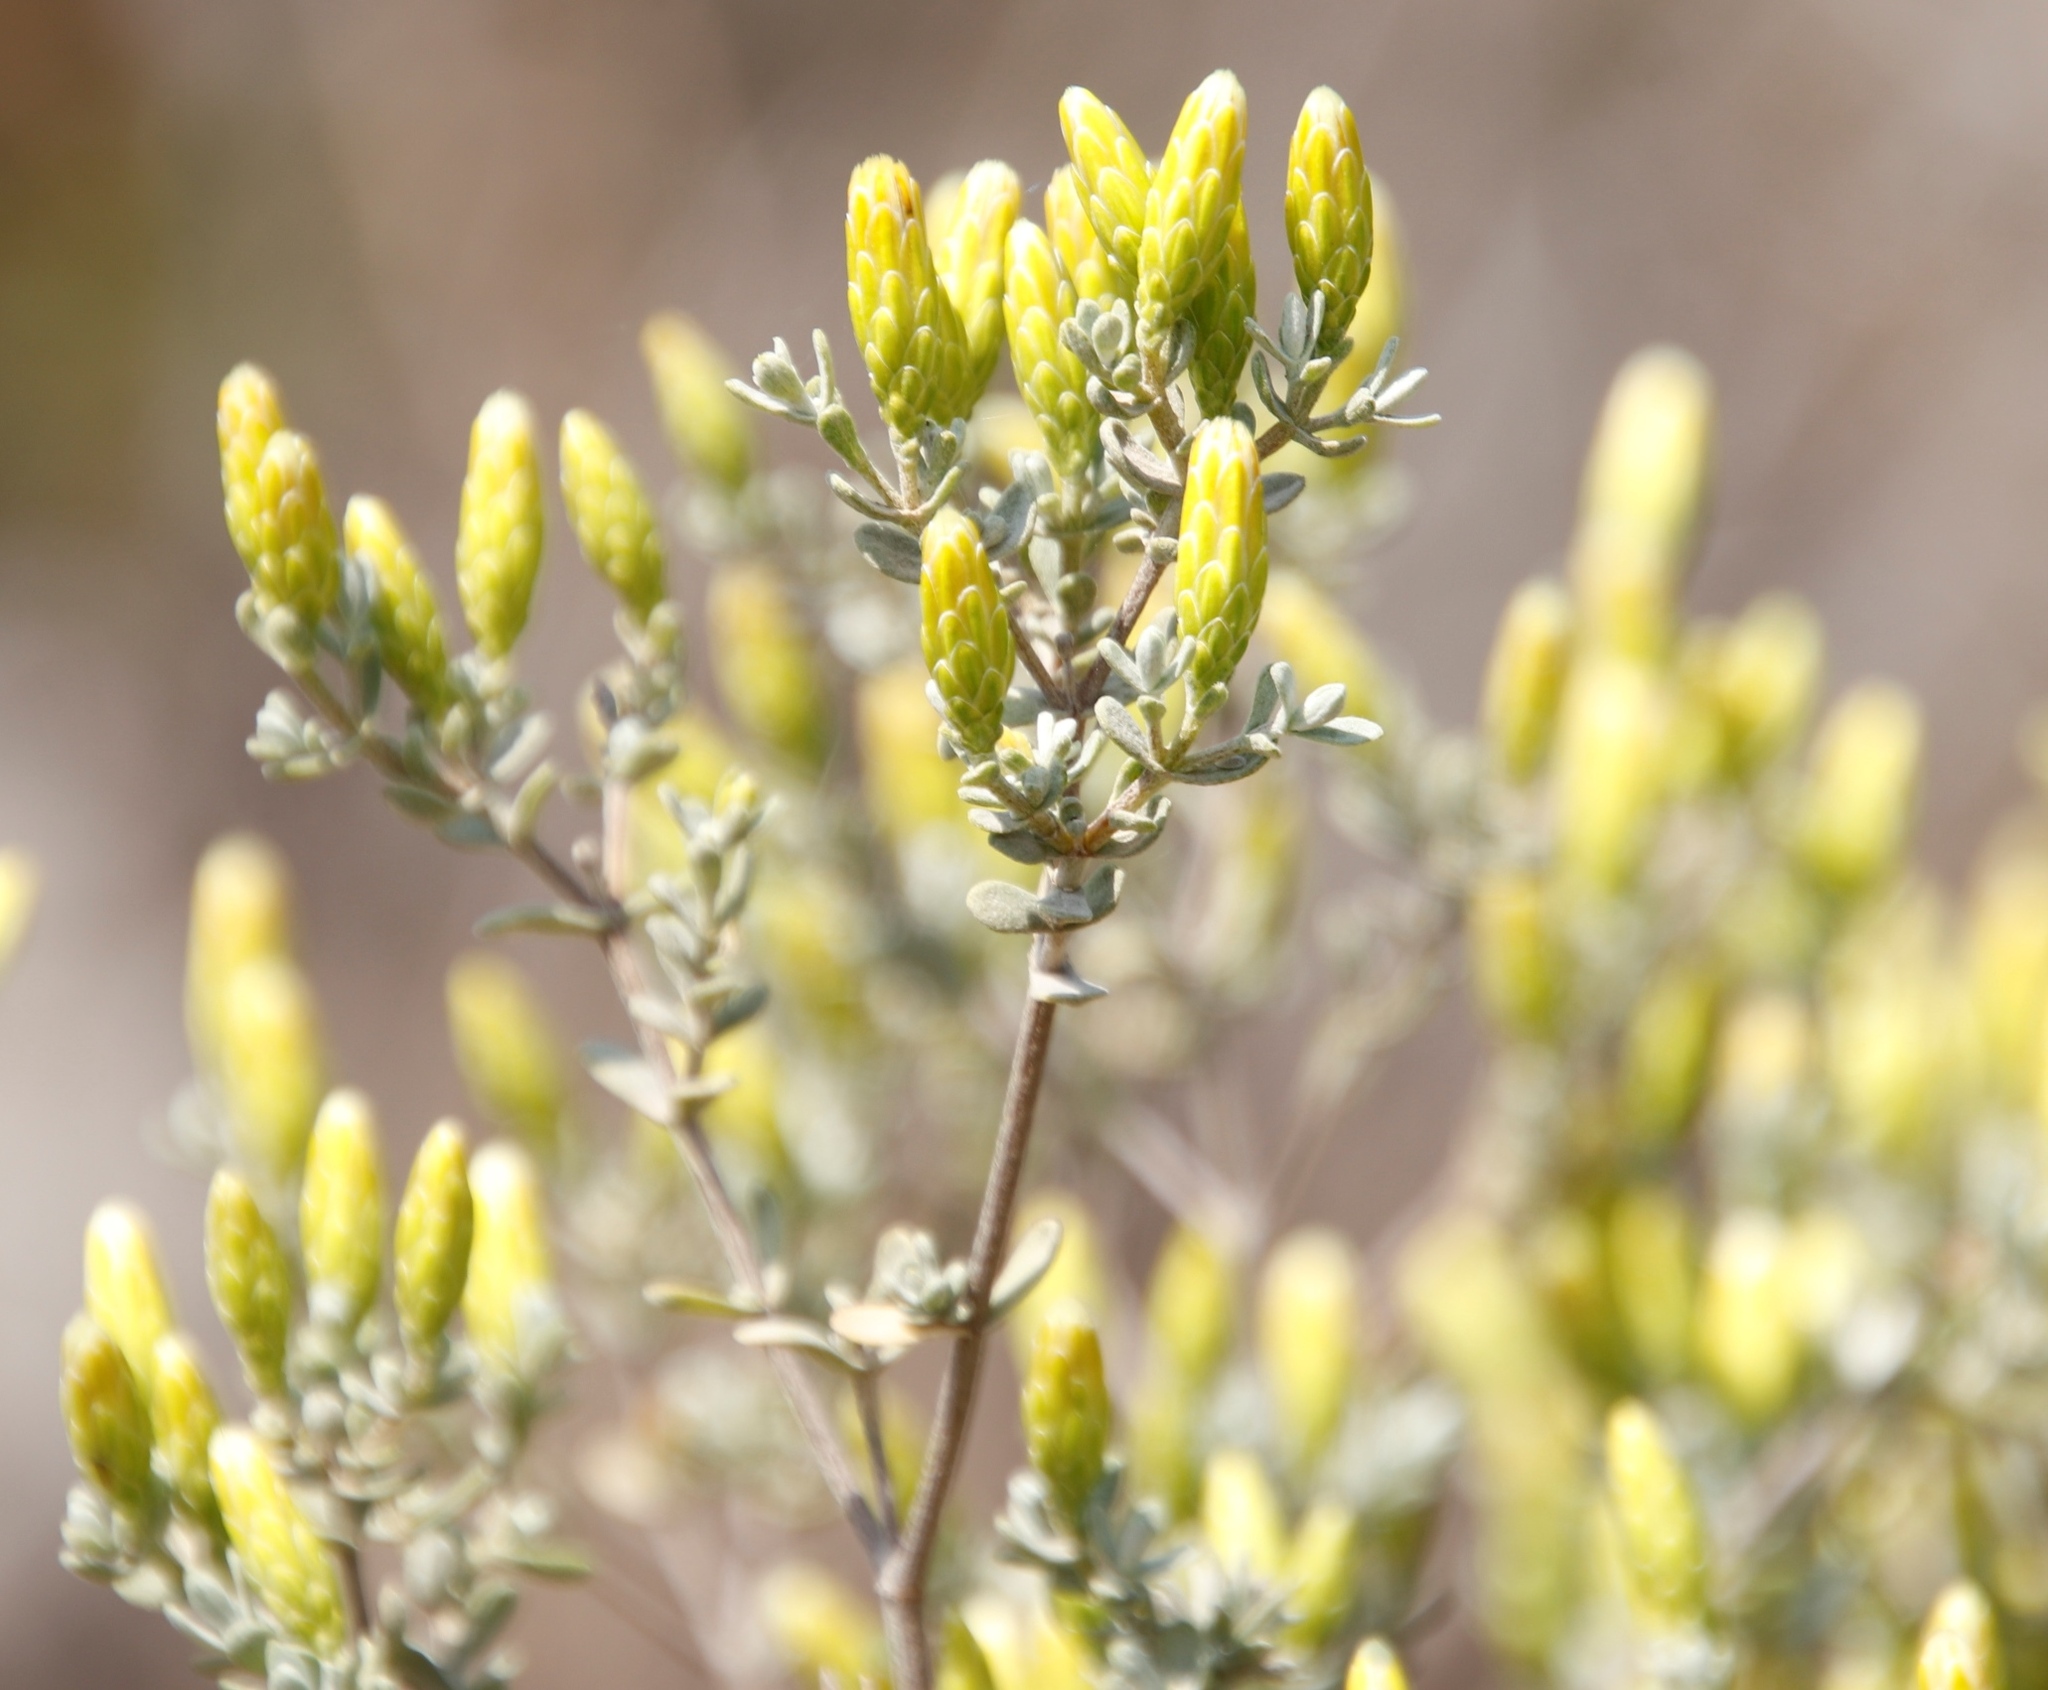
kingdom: Plantae
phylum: Tracheophyta
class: Magnoliopsida
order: Asterales
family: Asteraceae
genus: Pteronia
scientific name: Pteronia incana
